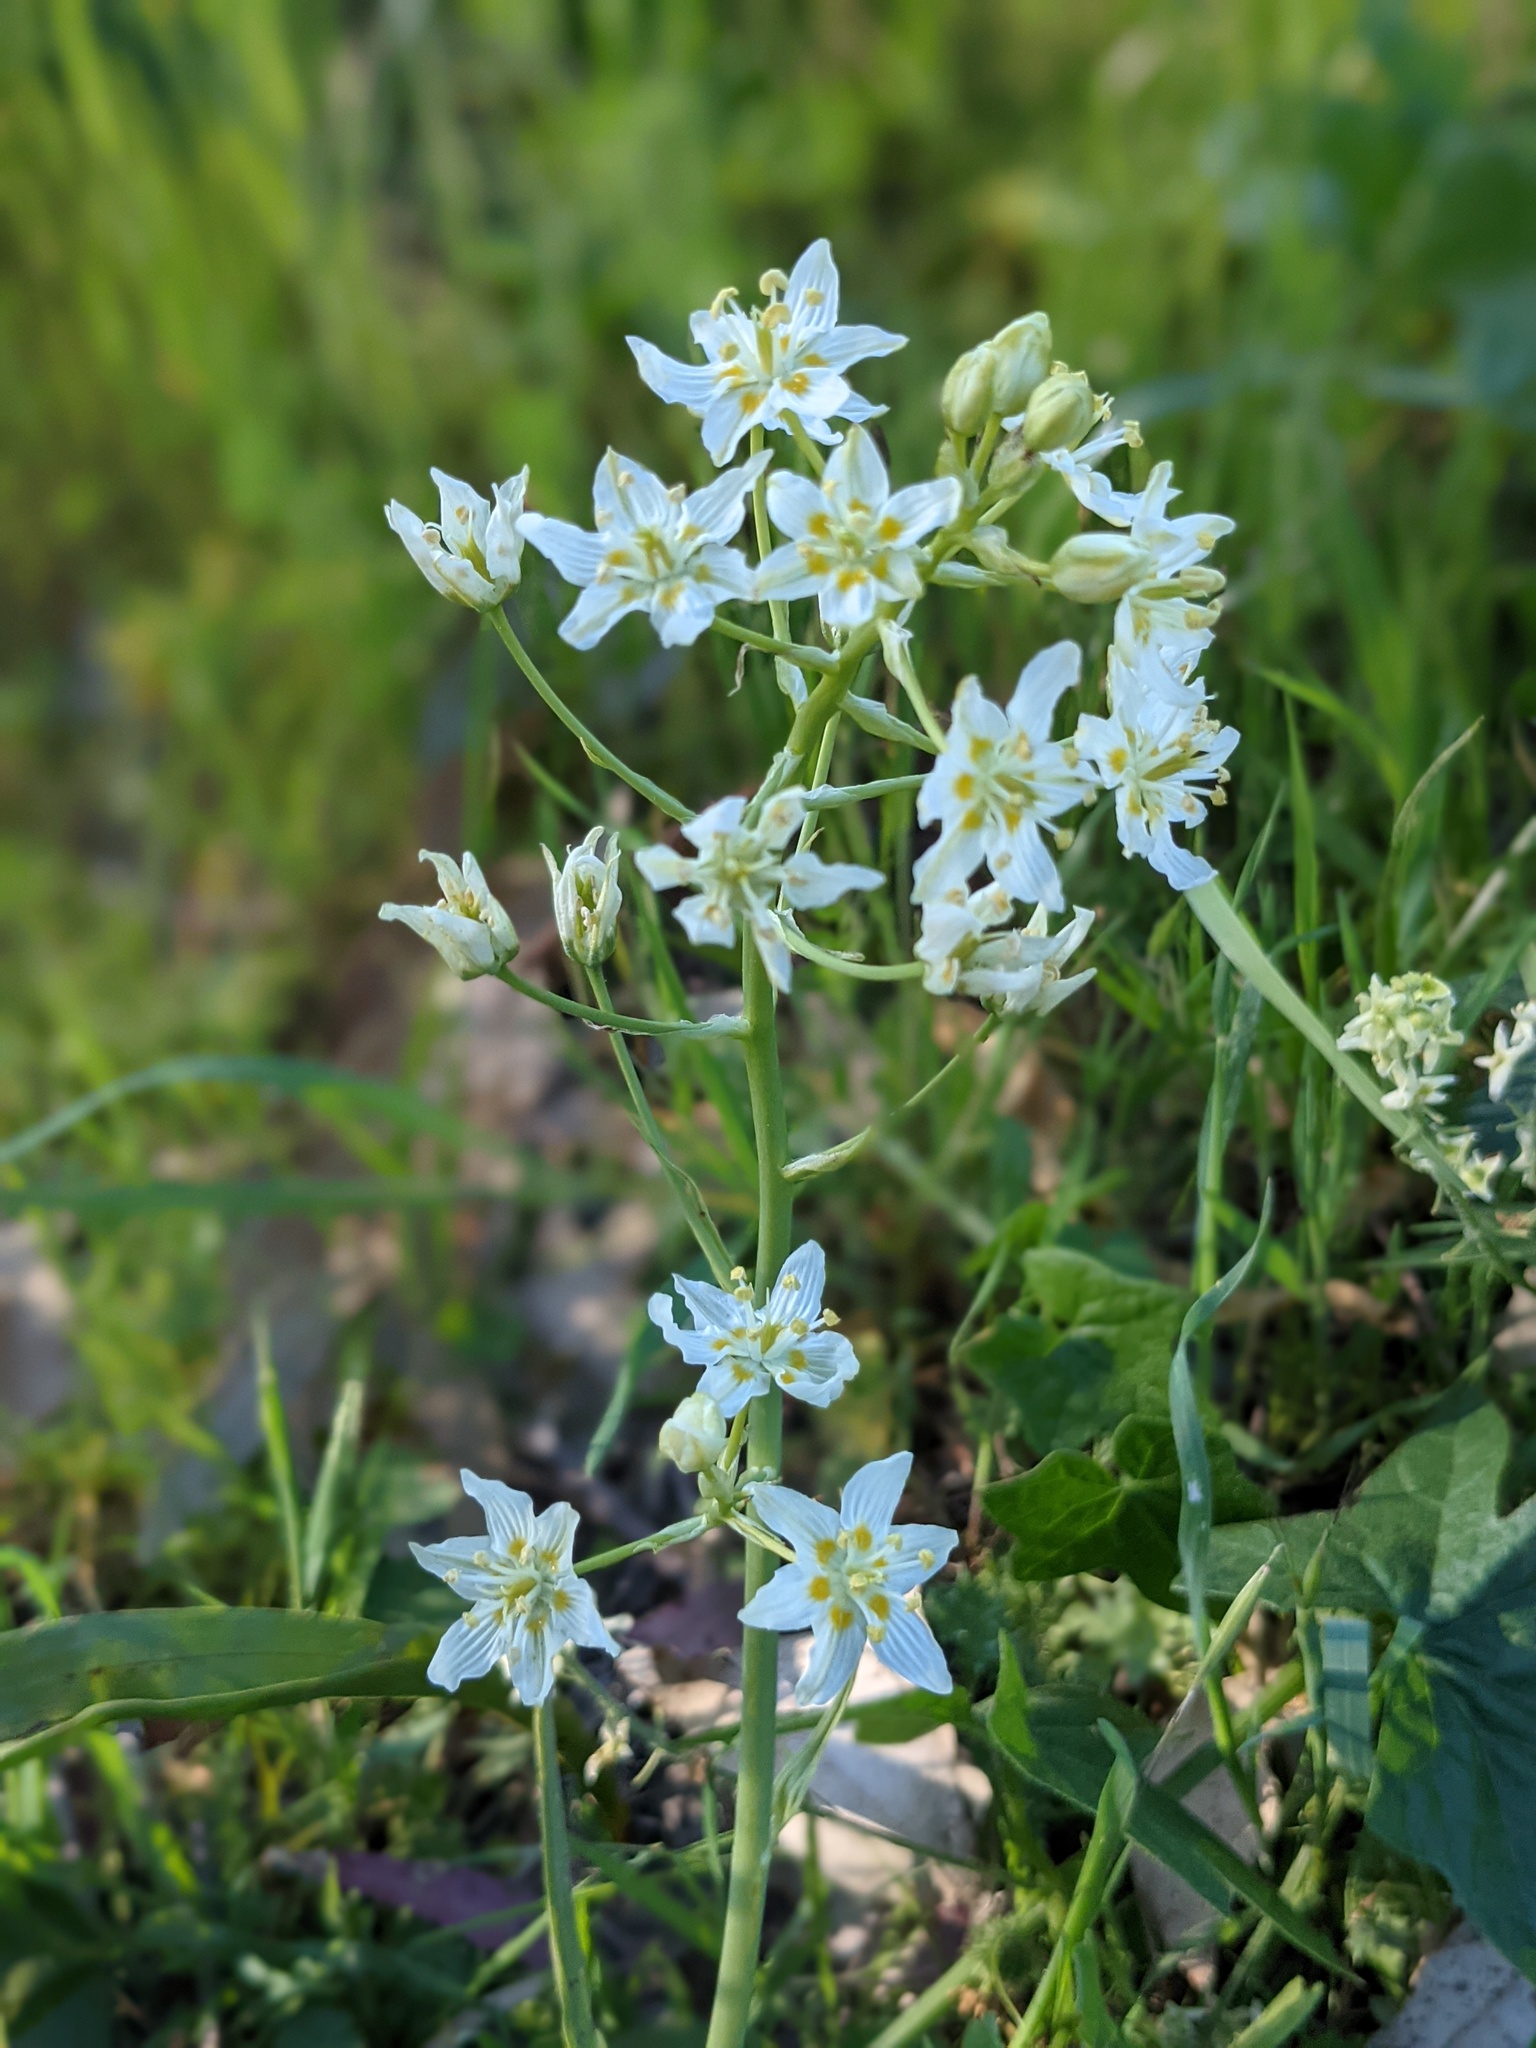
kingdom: Plantae
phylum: Tracheophyta
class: Liliopsida
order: Liliales
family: Melanthiaceae
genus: Toxicoscordion
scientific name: Toxicoscordion fremontii
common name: Fremont's death camas
